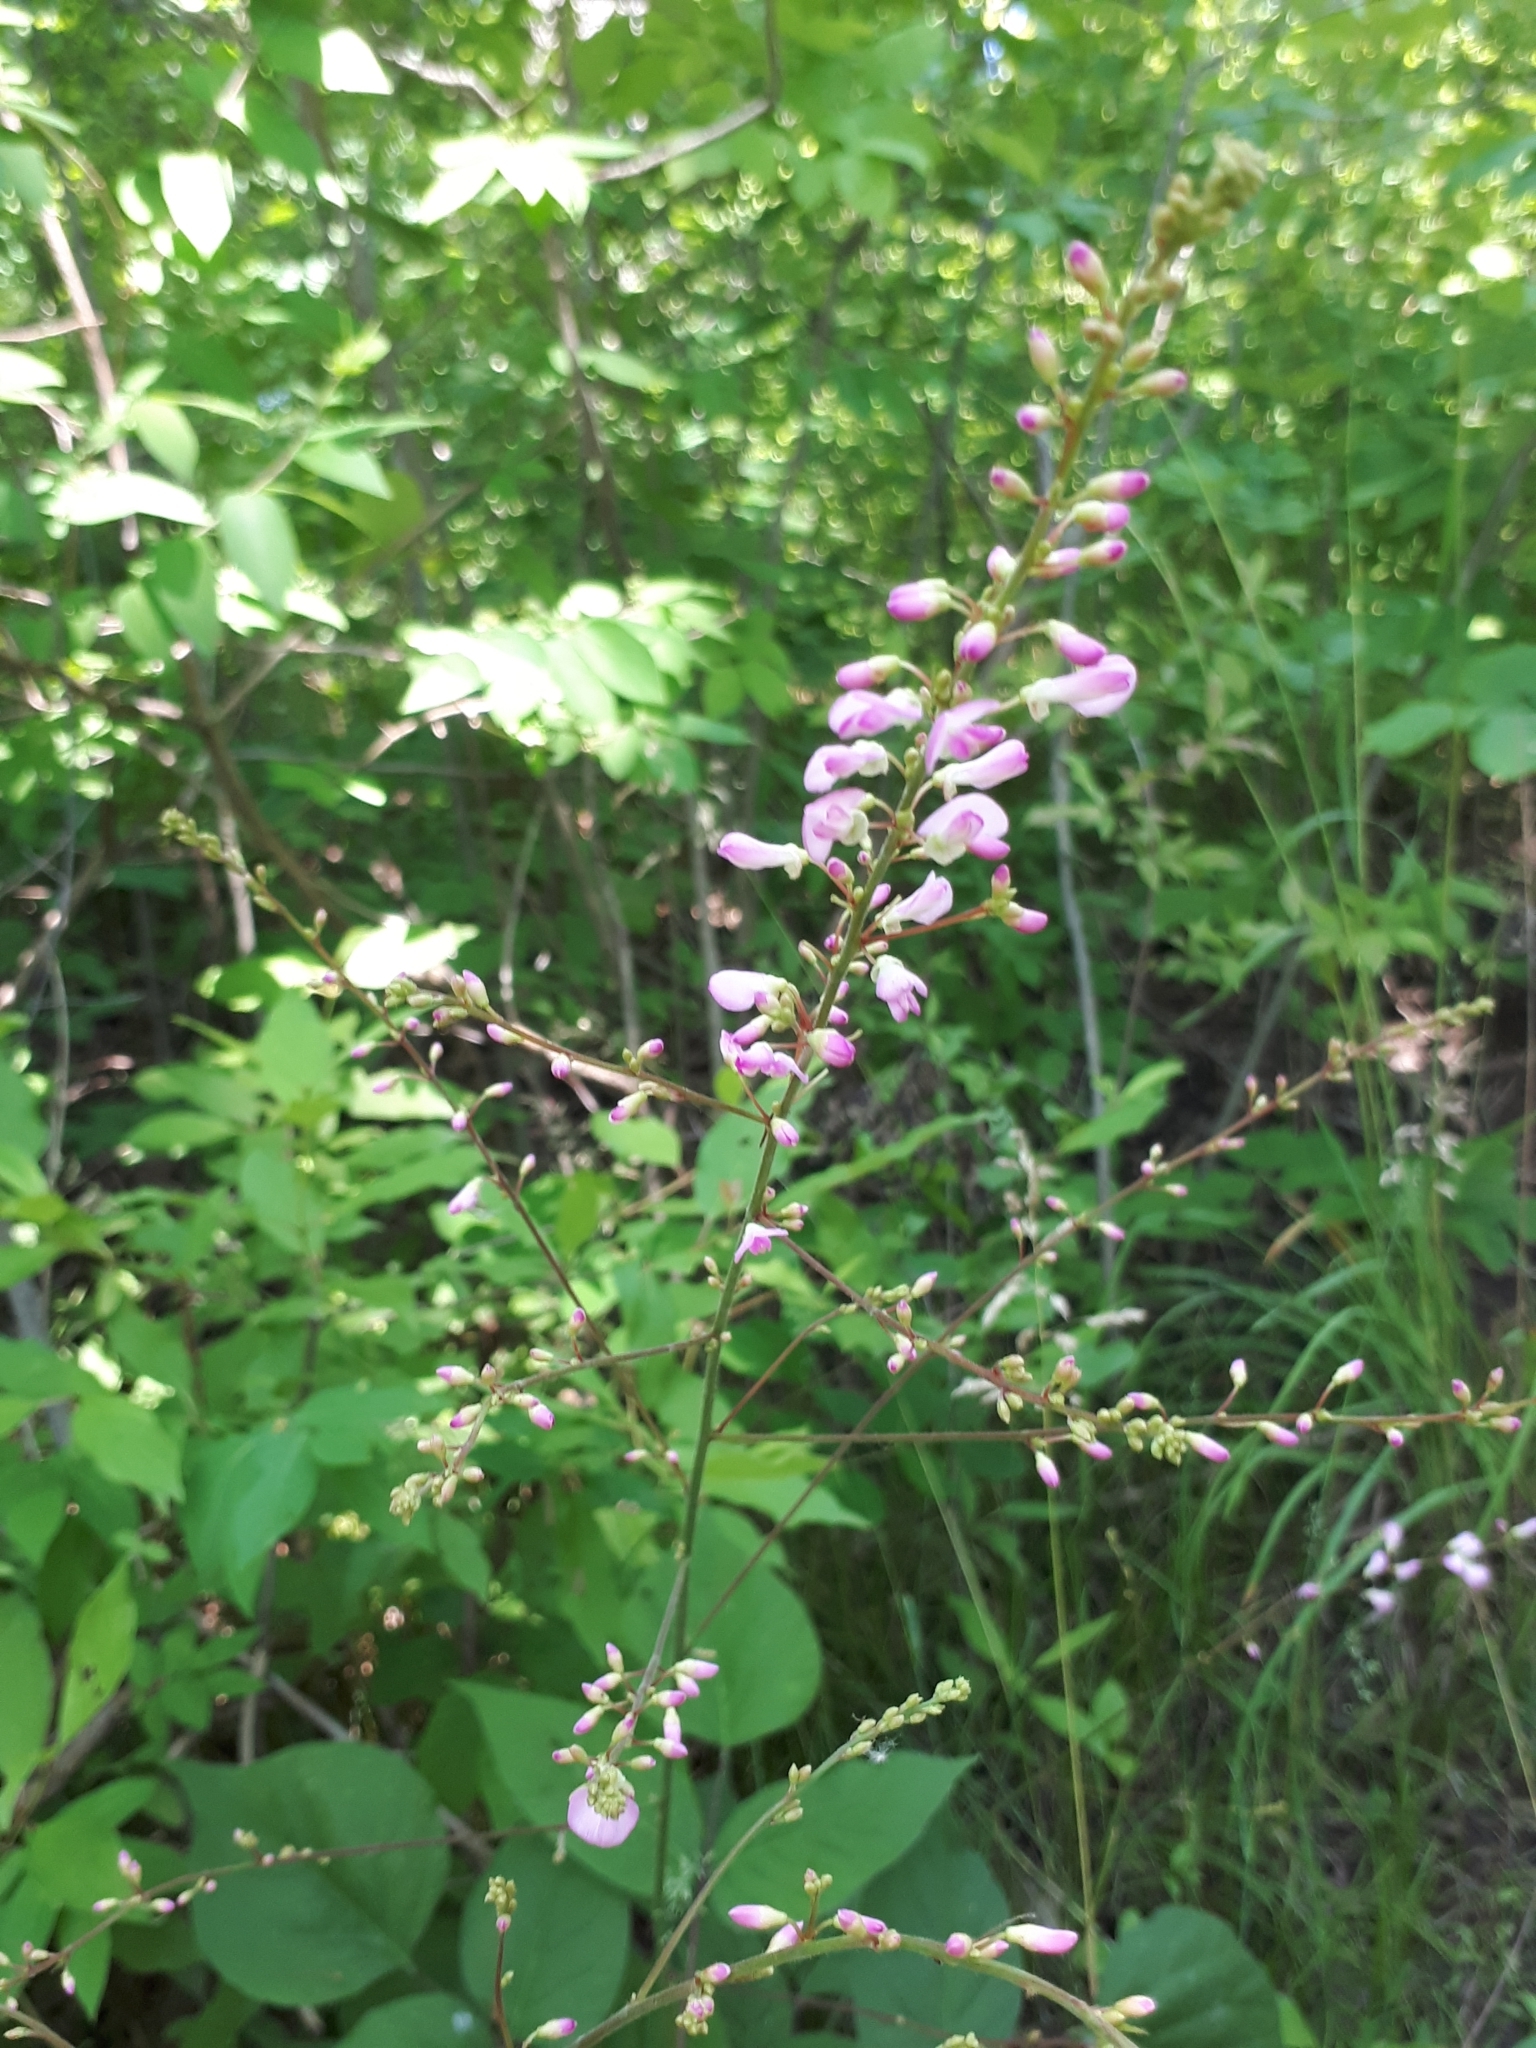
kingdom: Plantae
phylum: Tracheophyta
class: Magnoliopsida
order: Fabales
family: Fabaceae
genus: Hylodesmum
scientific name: Hylodesmum glutinosum
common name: Clustered-leaved tick-trefoil
